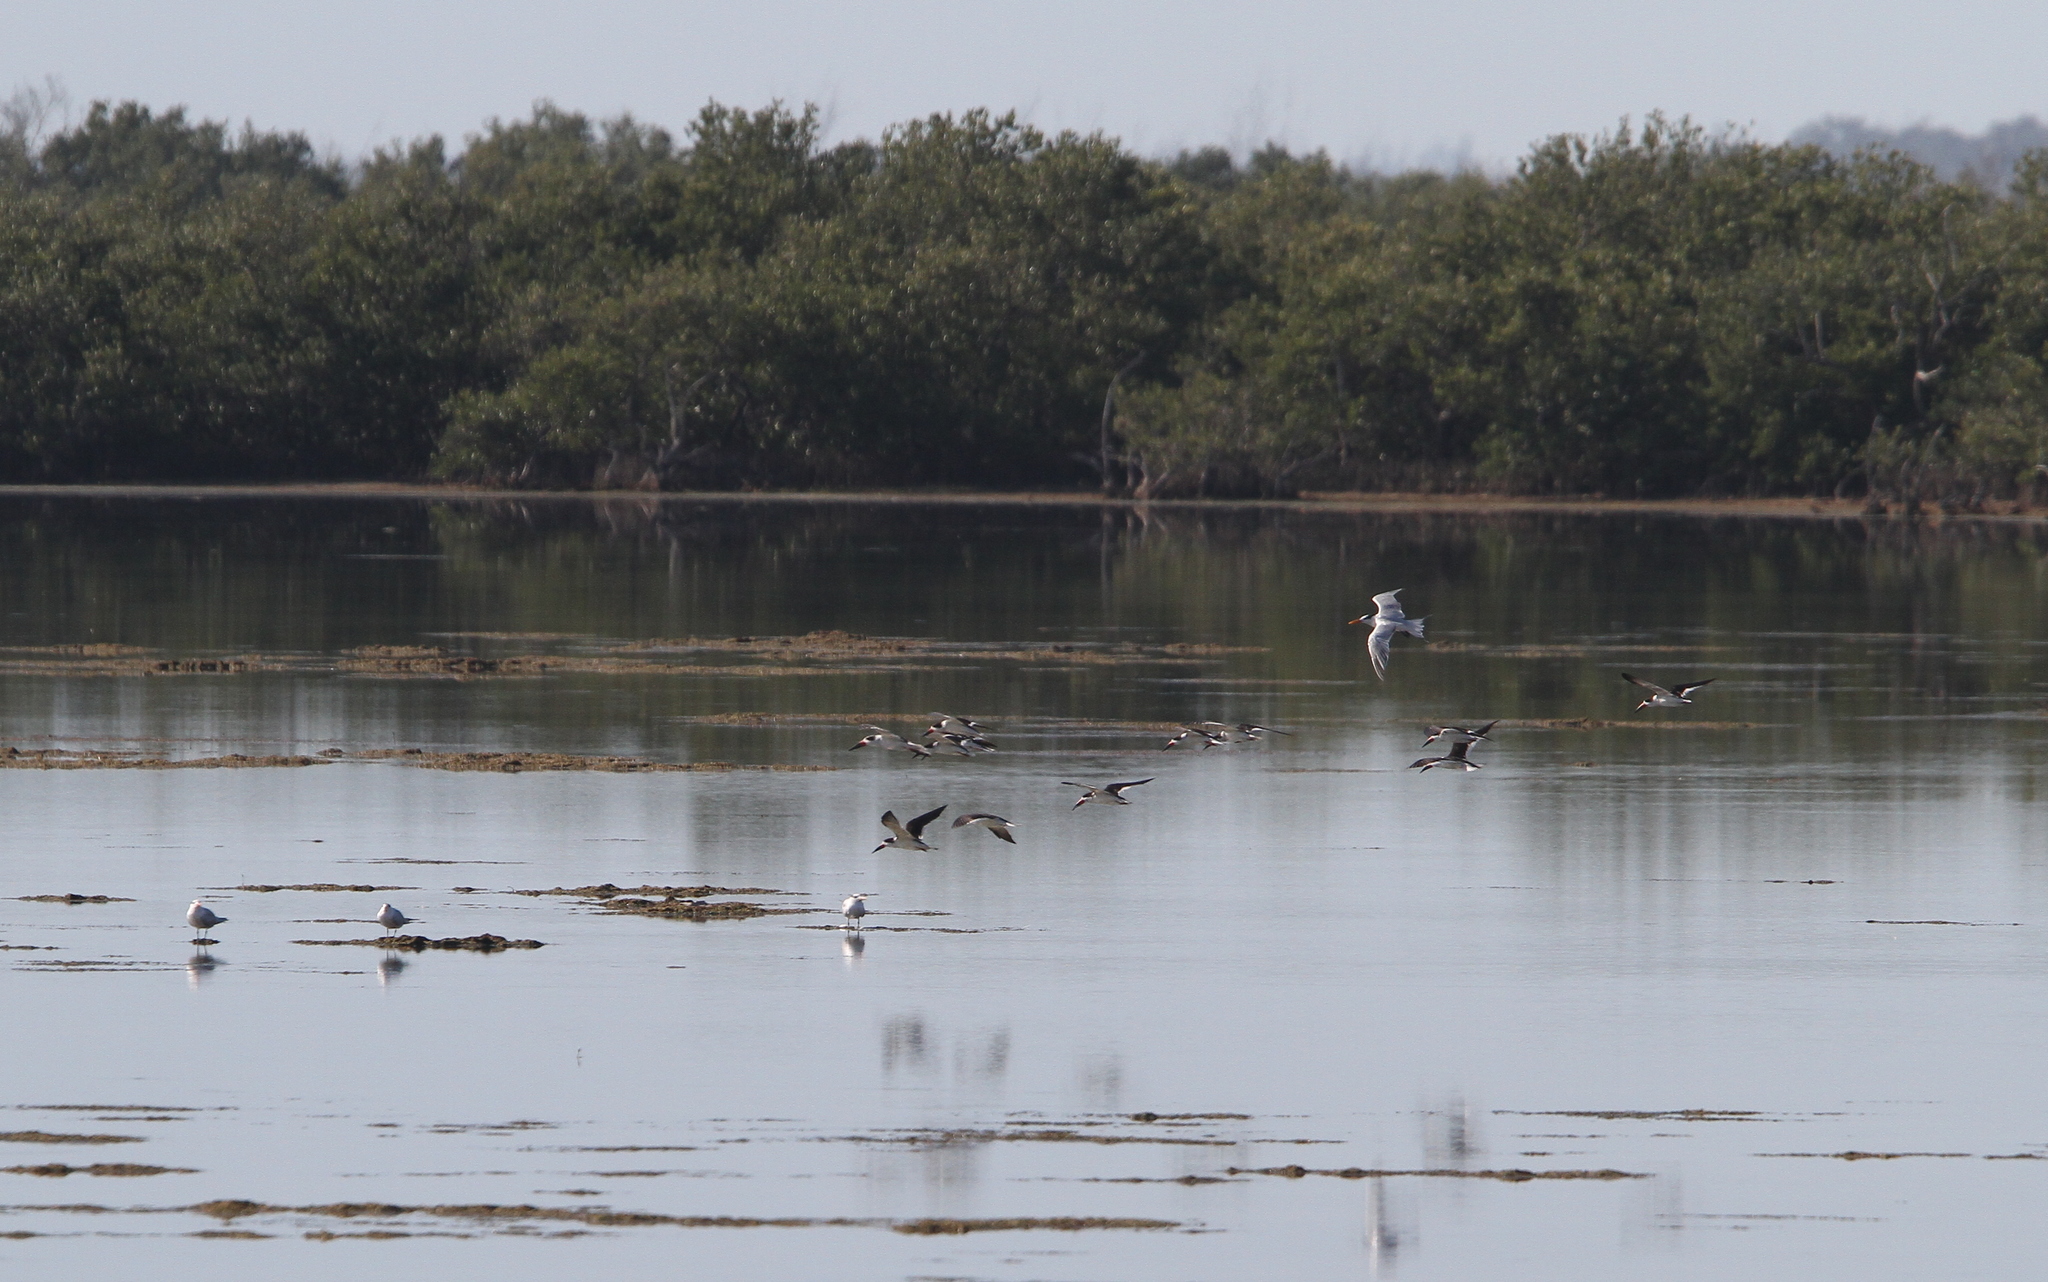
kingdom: Animalia
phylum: Chordata
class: Aves
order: Charadriiformes
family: Laridae
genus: Rynchops
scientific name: Rynchops niger
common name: Black skimmer
